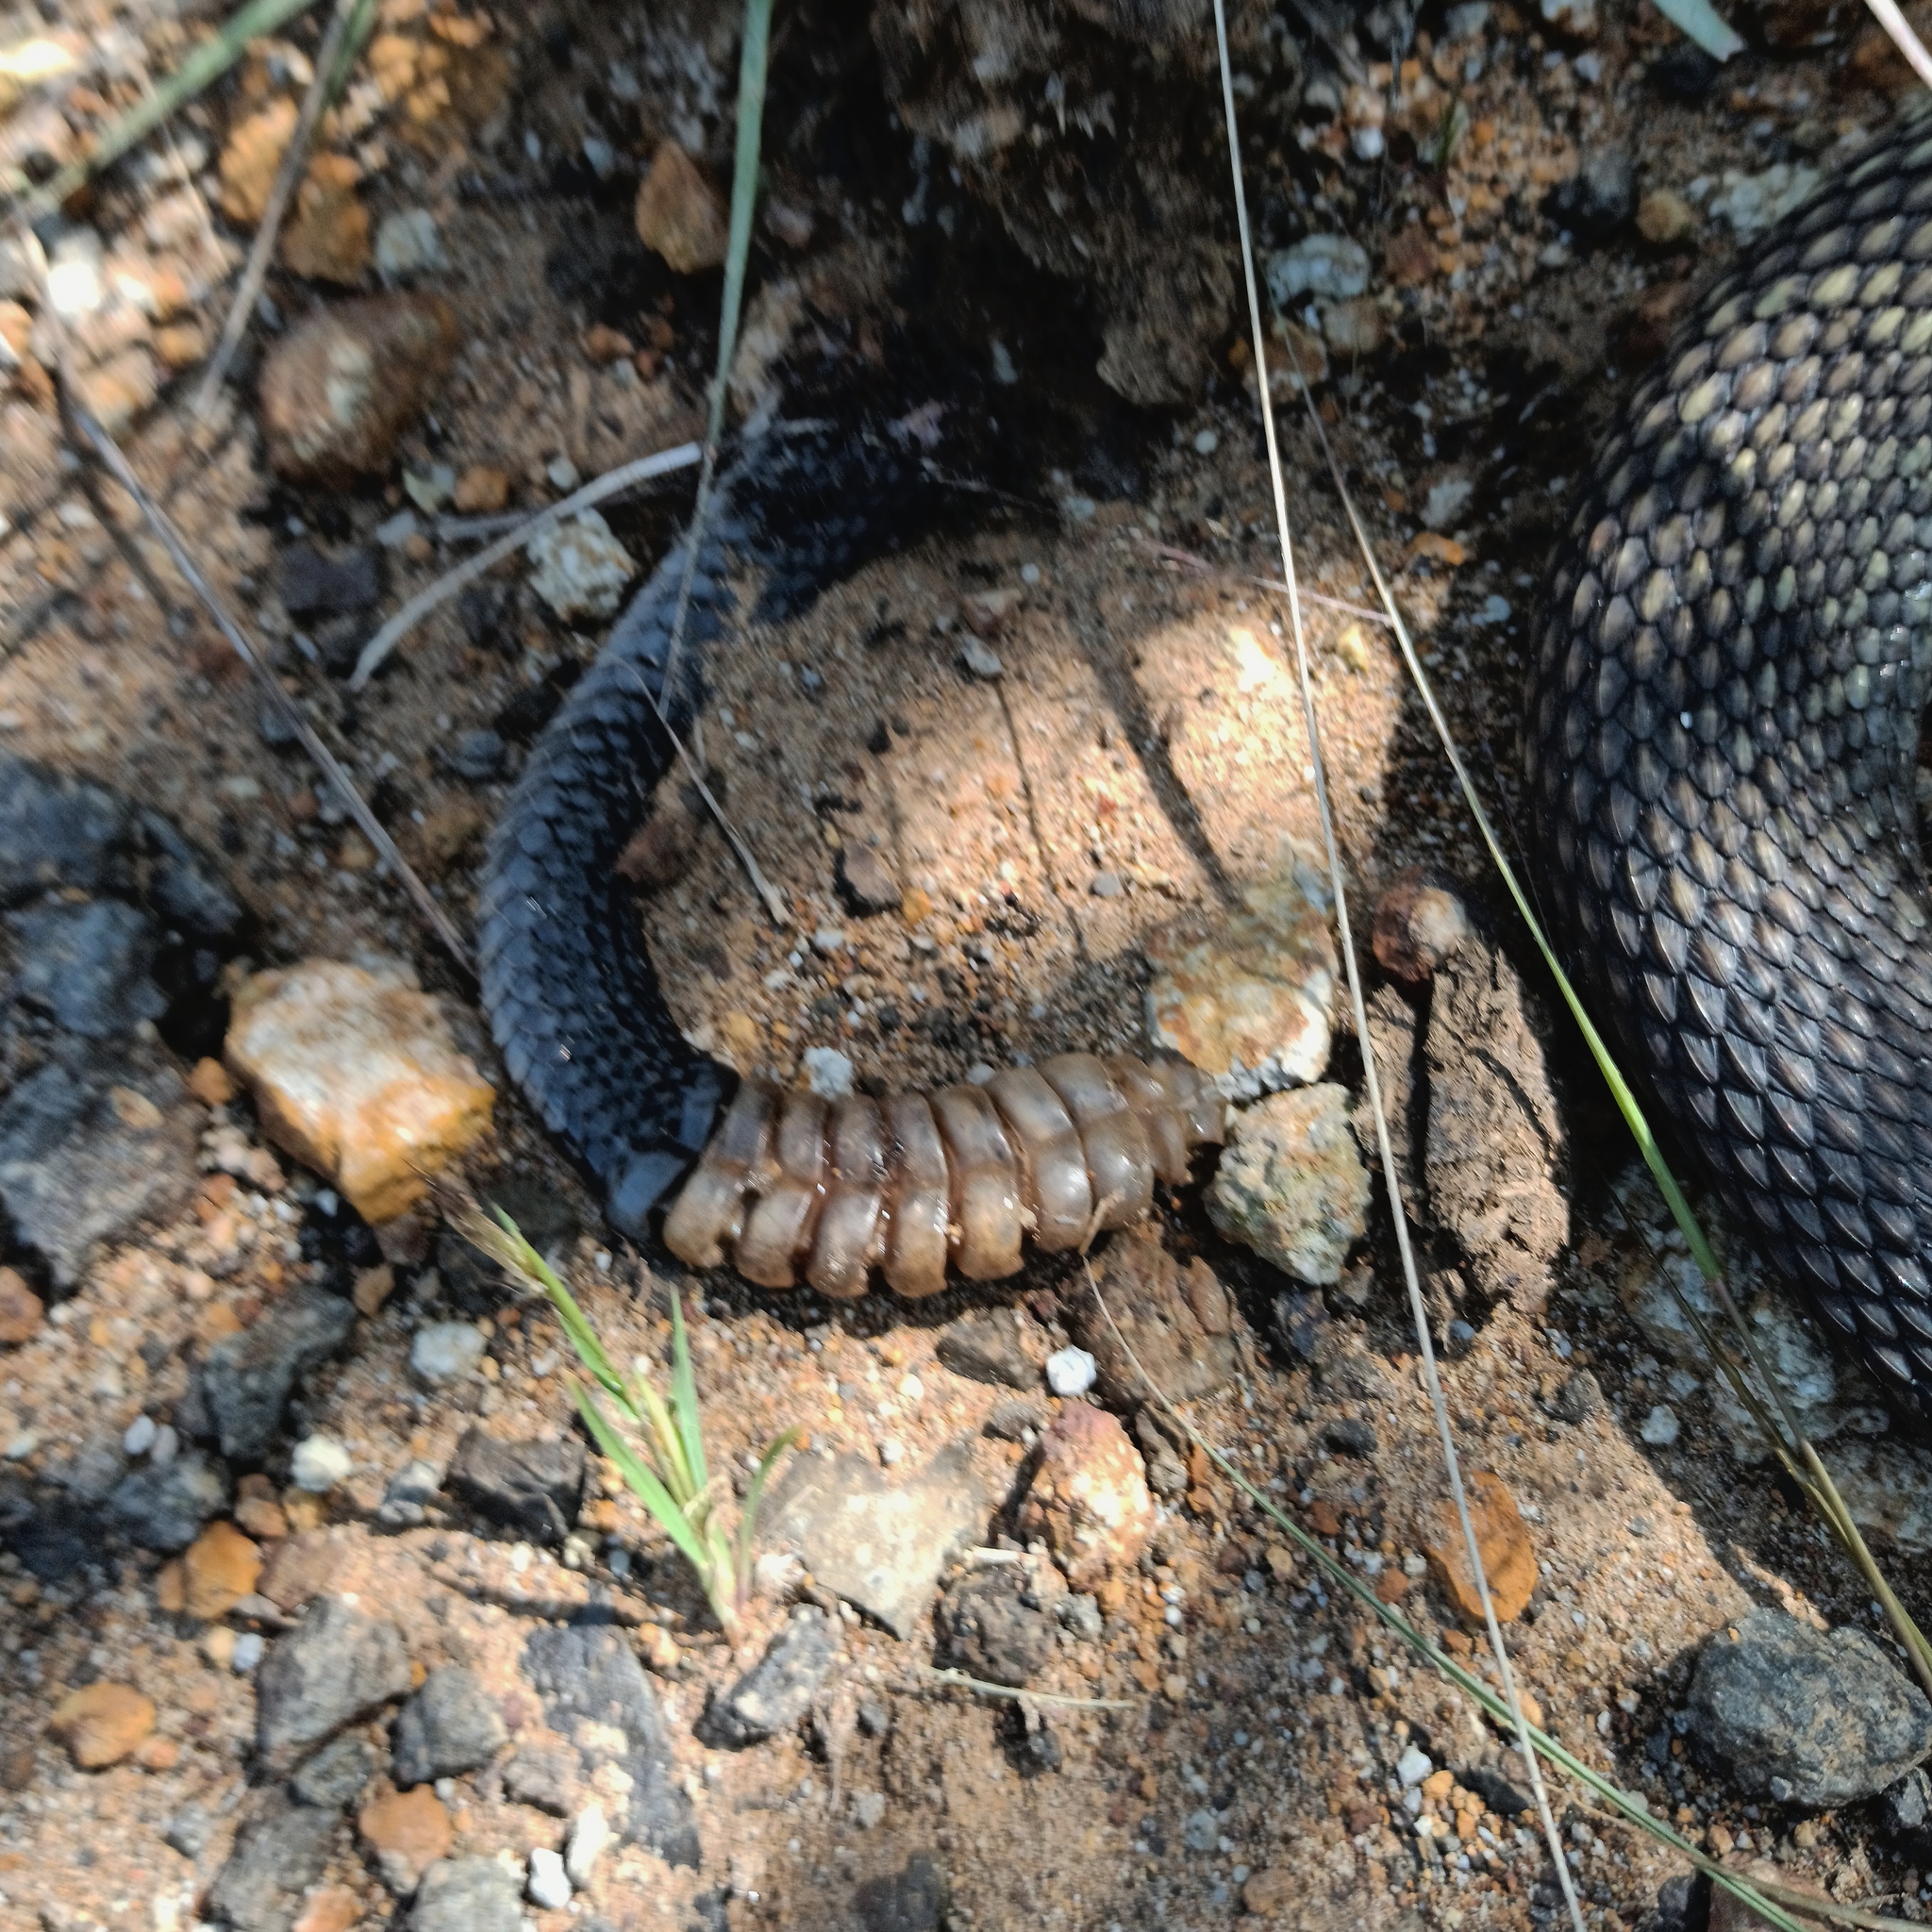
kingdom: Animalia
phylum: Chordata
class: Squamata
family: Viperidae
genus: Crotalus
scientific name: Crotalus molossus
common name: Black tailed rattlesnake
